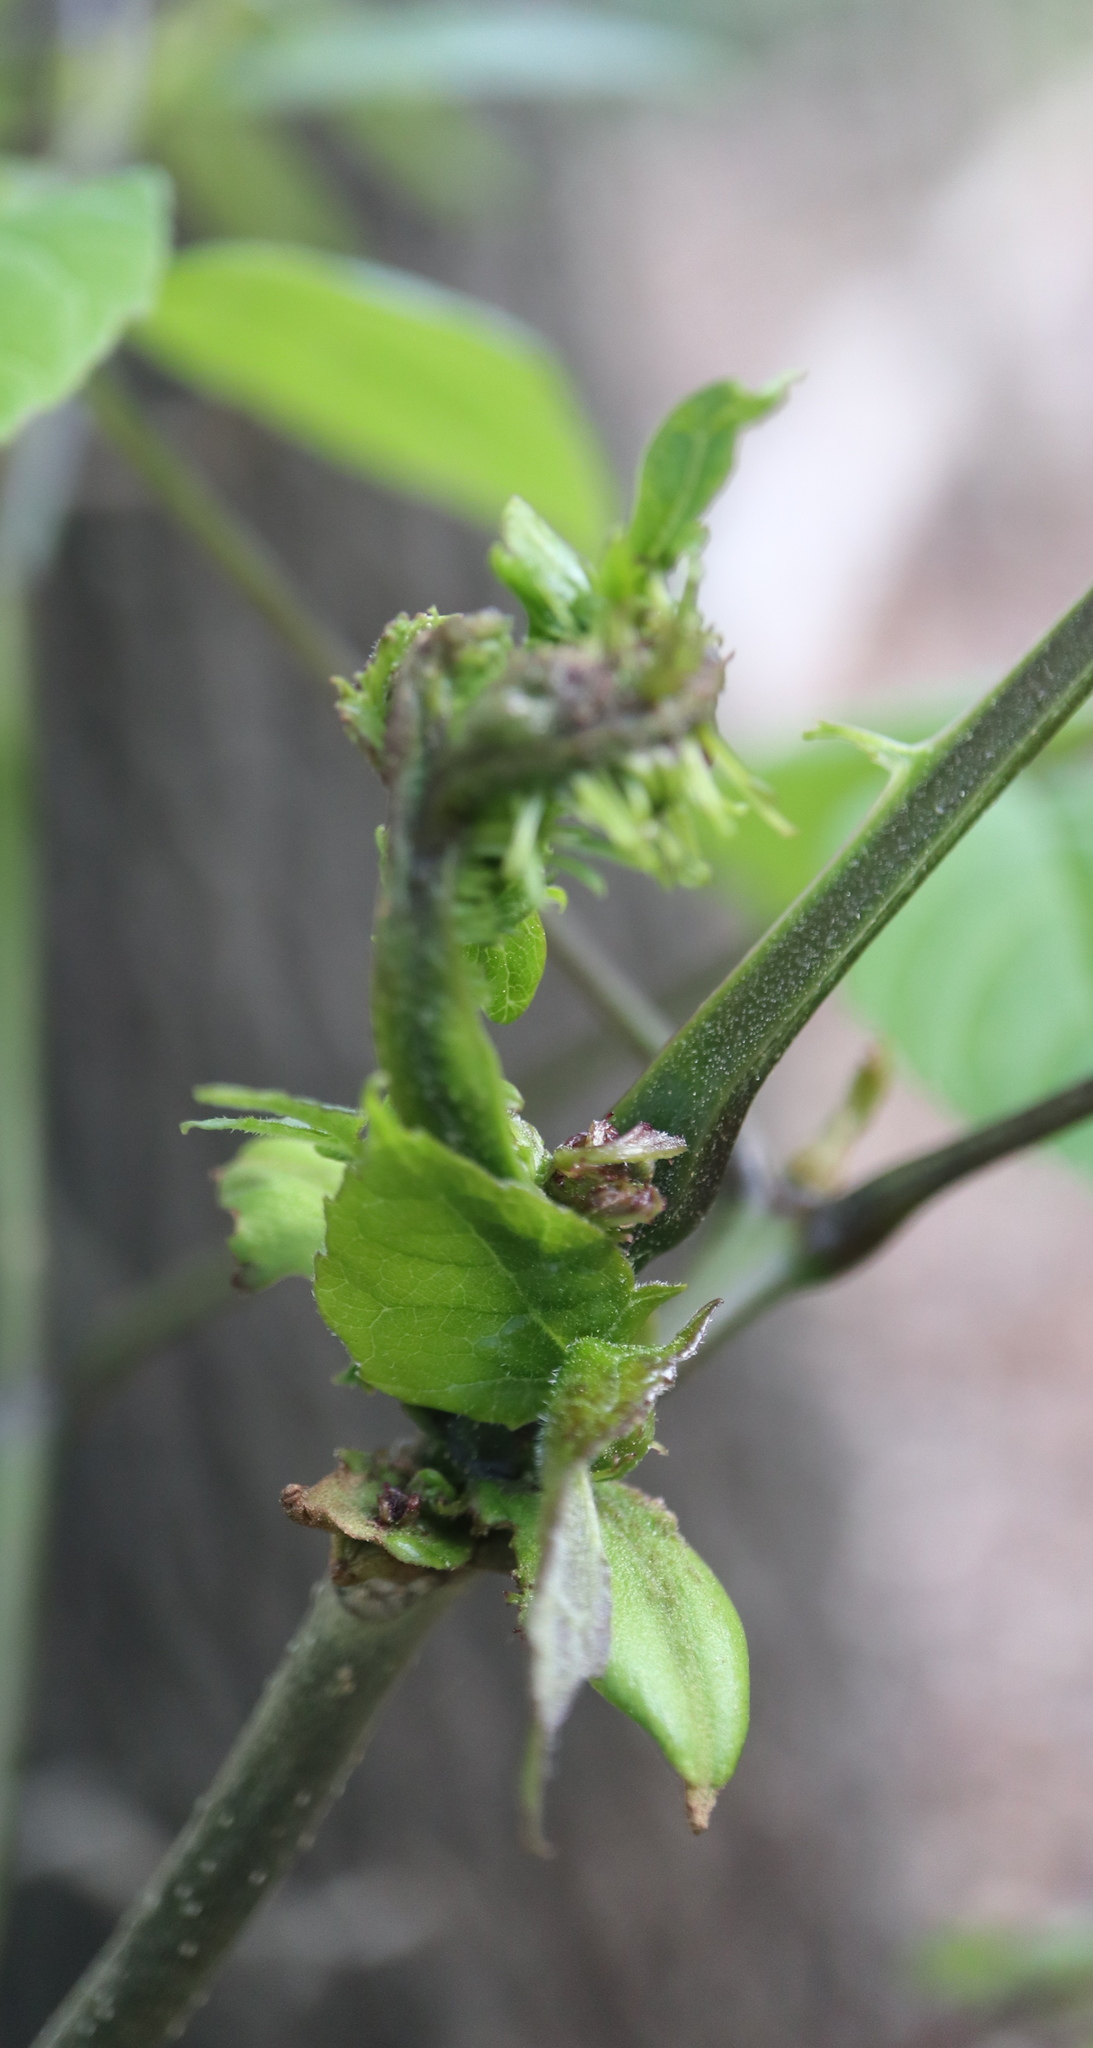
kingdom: Bacteria
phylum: Firmicutes
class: Bacilli
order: Acholeplasmatales
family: Acholeplasmataceae
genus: Phytoplasma
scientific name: Phytoplasma
